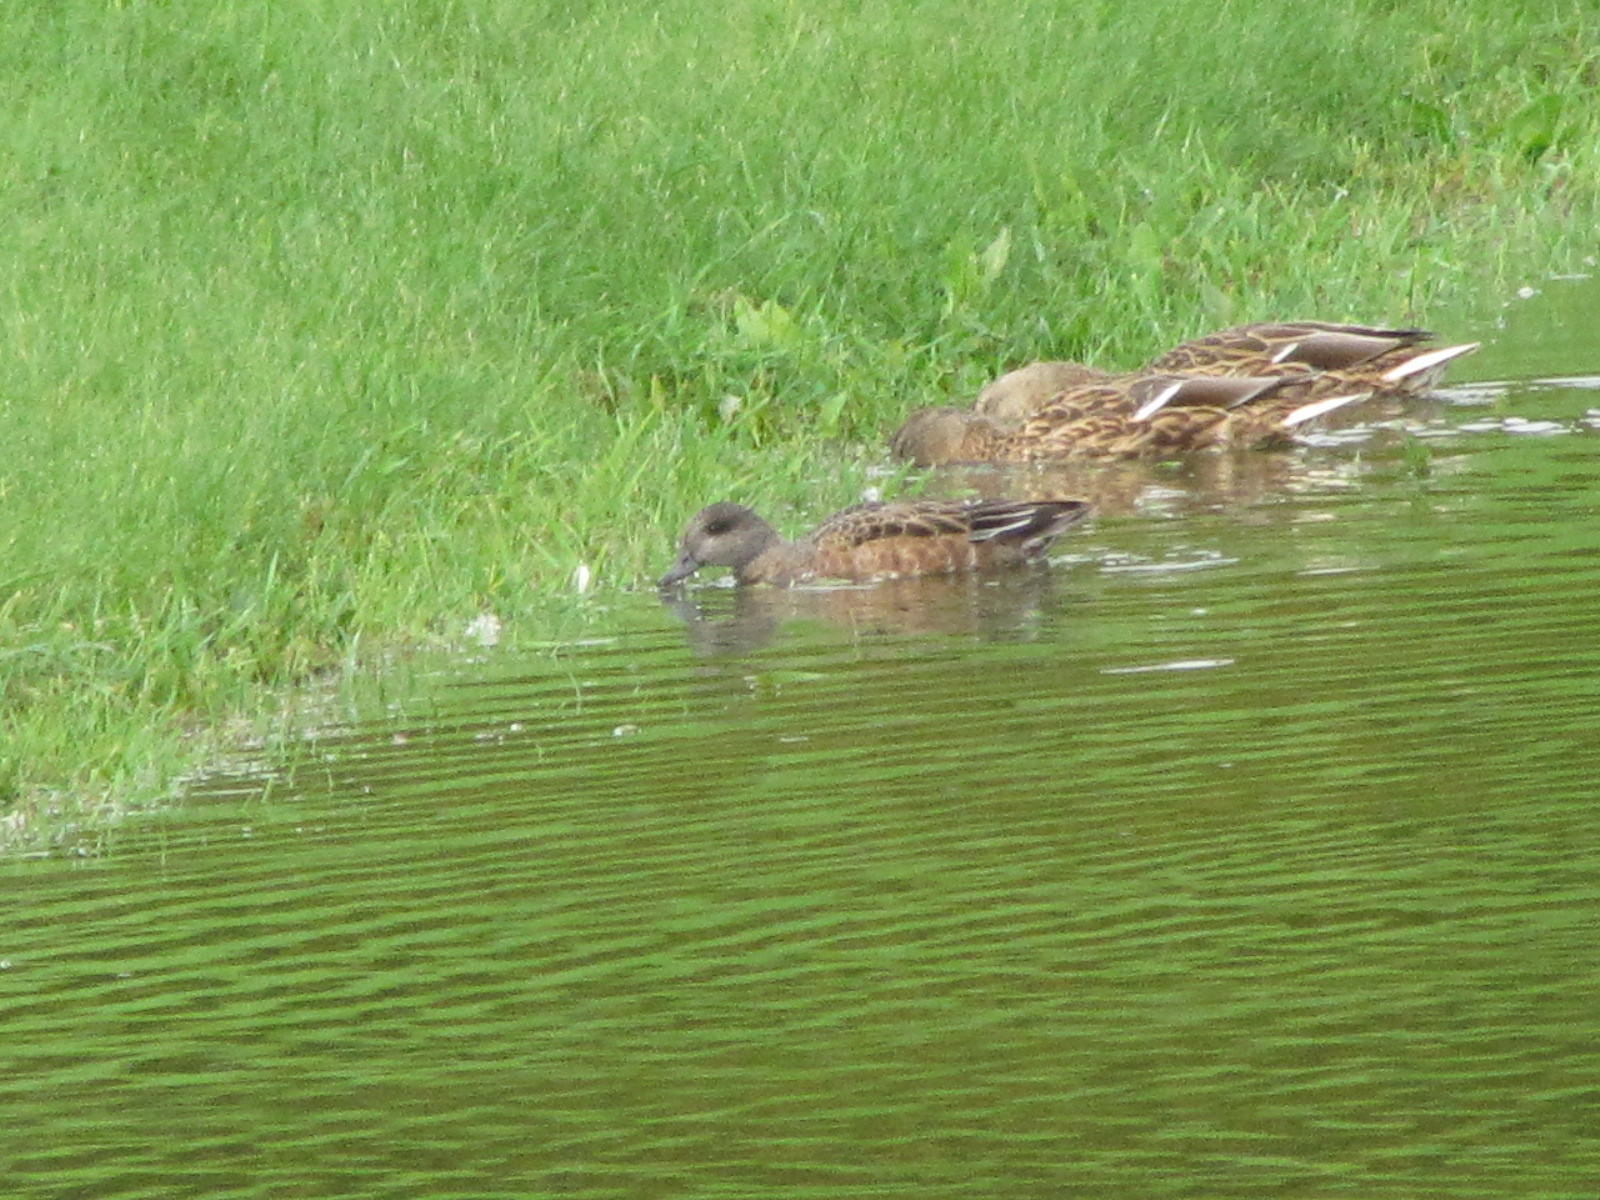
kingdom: Animalia
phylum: Chordata
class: Aves
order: Anseriformes
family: Anatidae
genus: Mareca
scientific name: Mareca americana
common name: American wigeon
